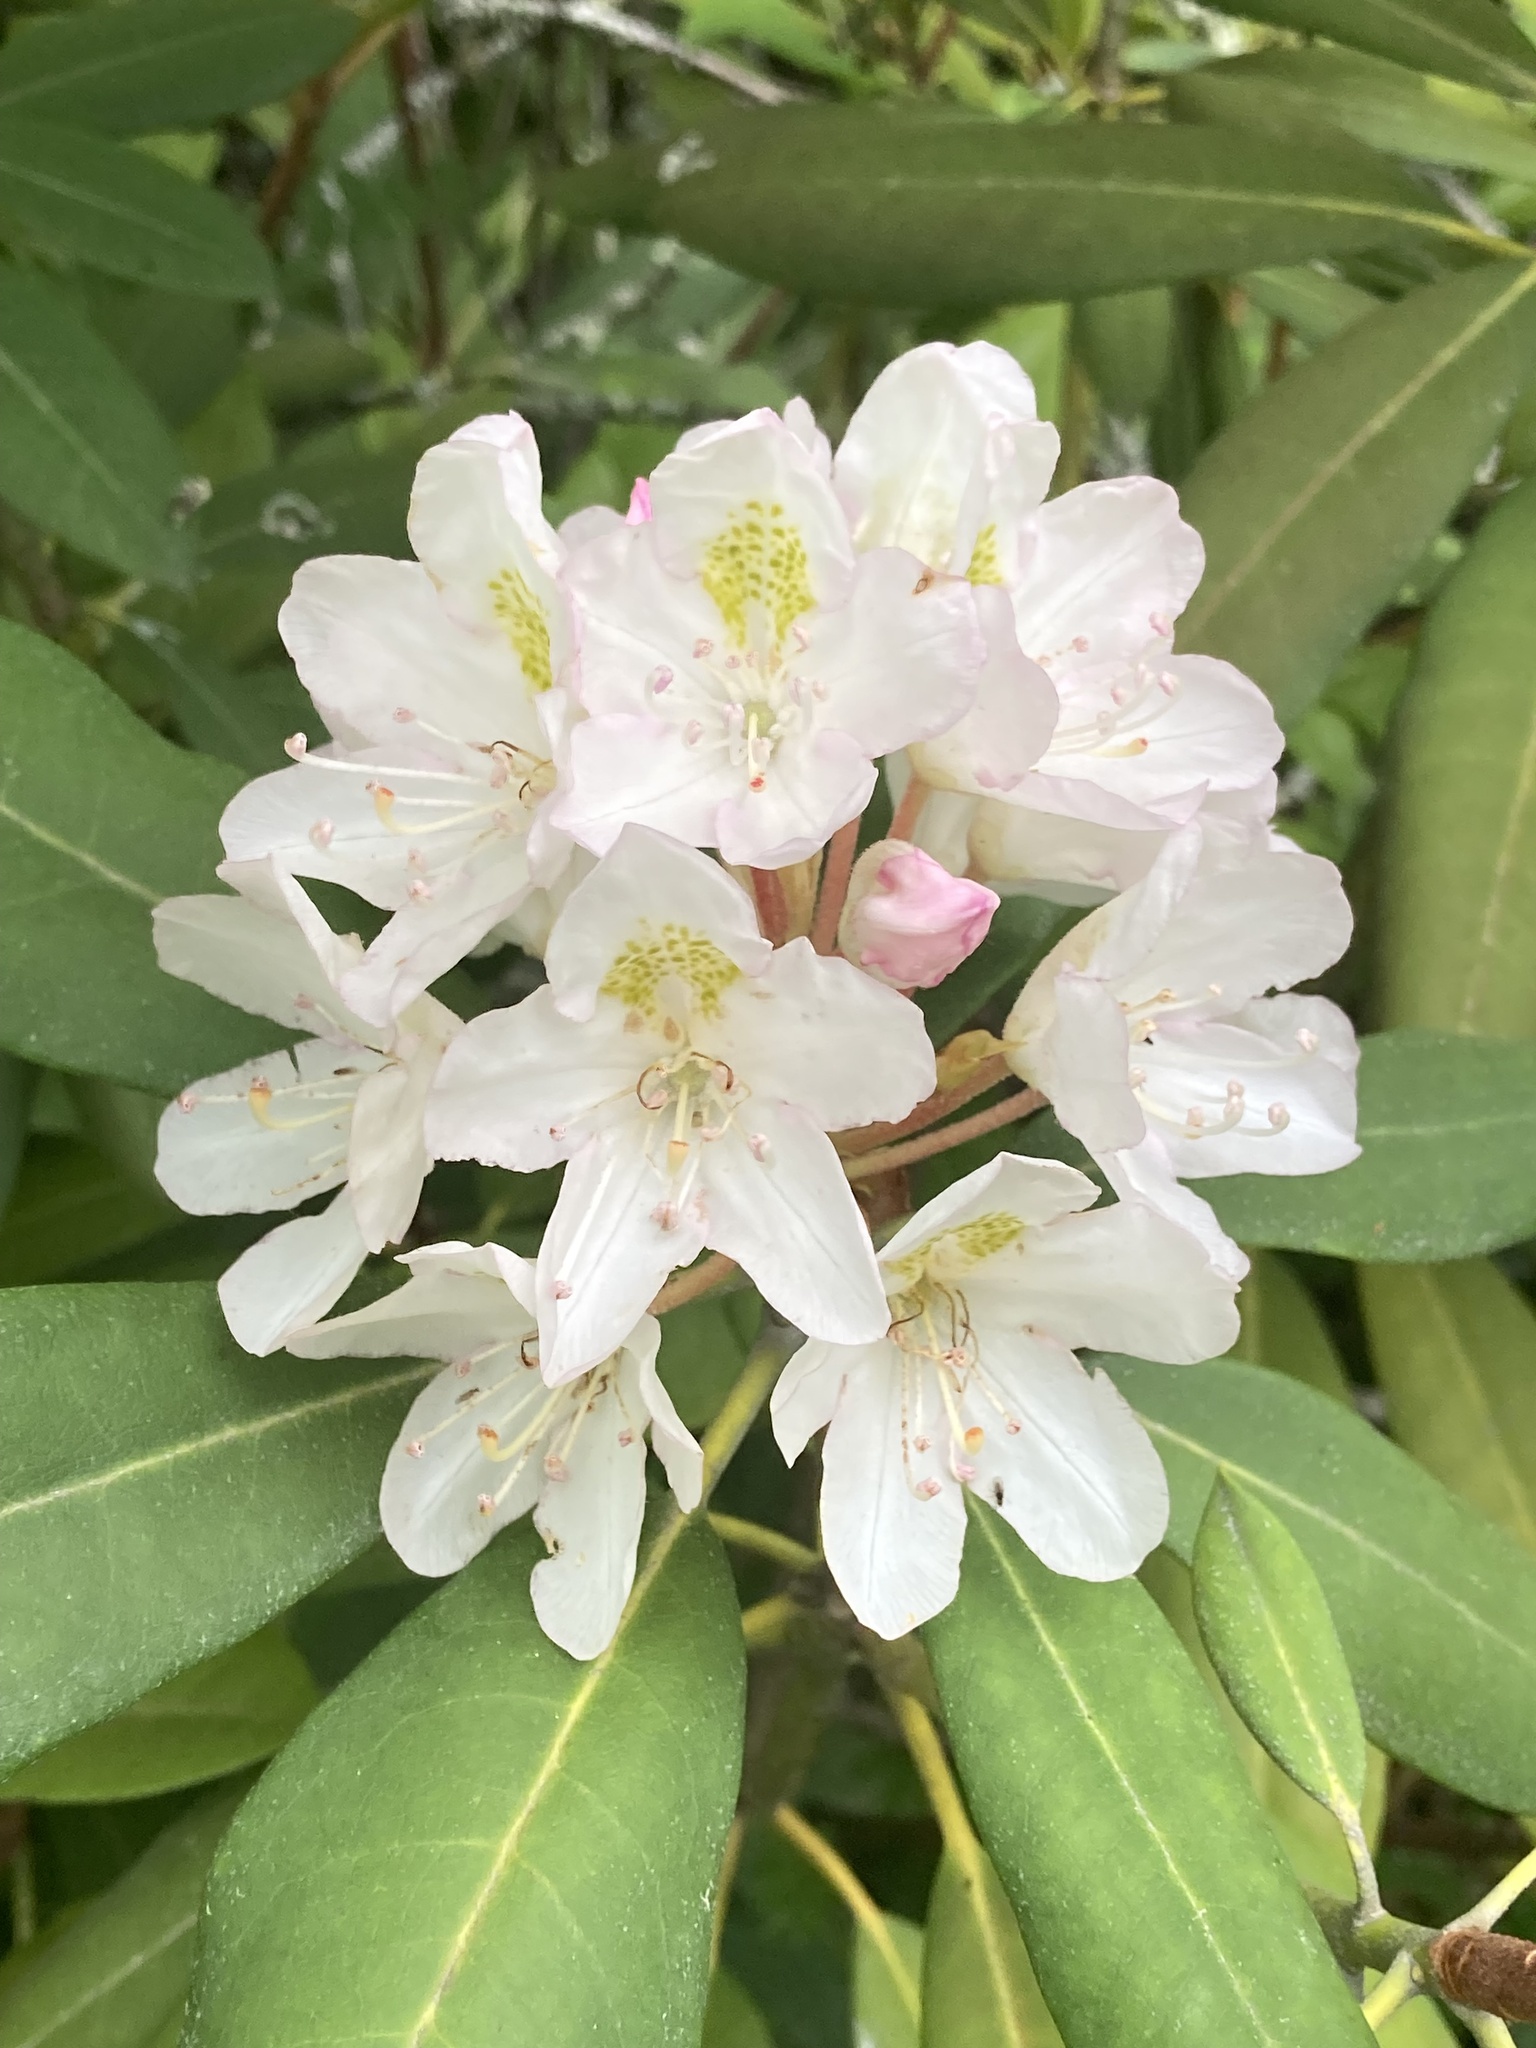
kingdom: Plantae
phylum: Tracheophyta
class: Magnoliopsida
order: Ericales
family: Ericaceae
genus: Rhododendron
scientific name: Rhododendron maximum
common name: Great rhododendron
